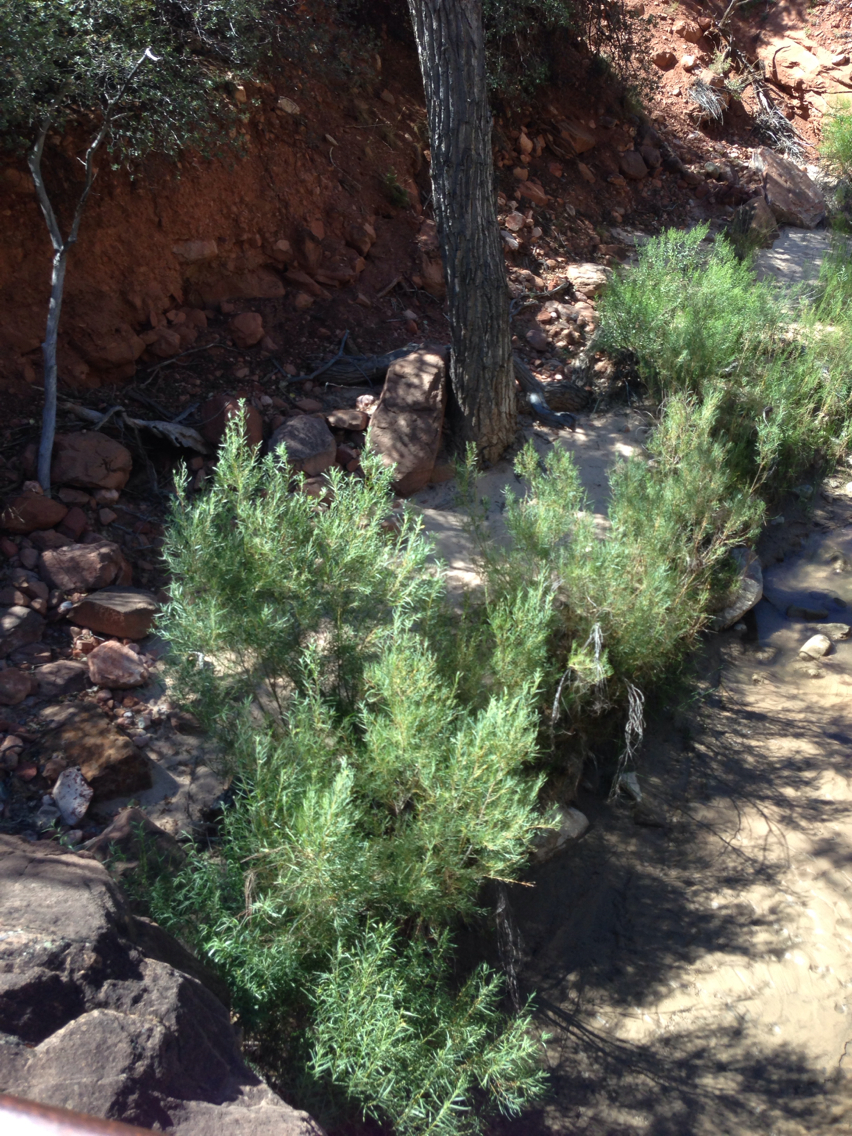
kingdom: Plantae
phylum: Tracheophyta
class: Magnoliopsida
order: Malpighiales
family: Salicaceae
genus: Salix
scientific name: Salix exigua
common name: Coyote willow
